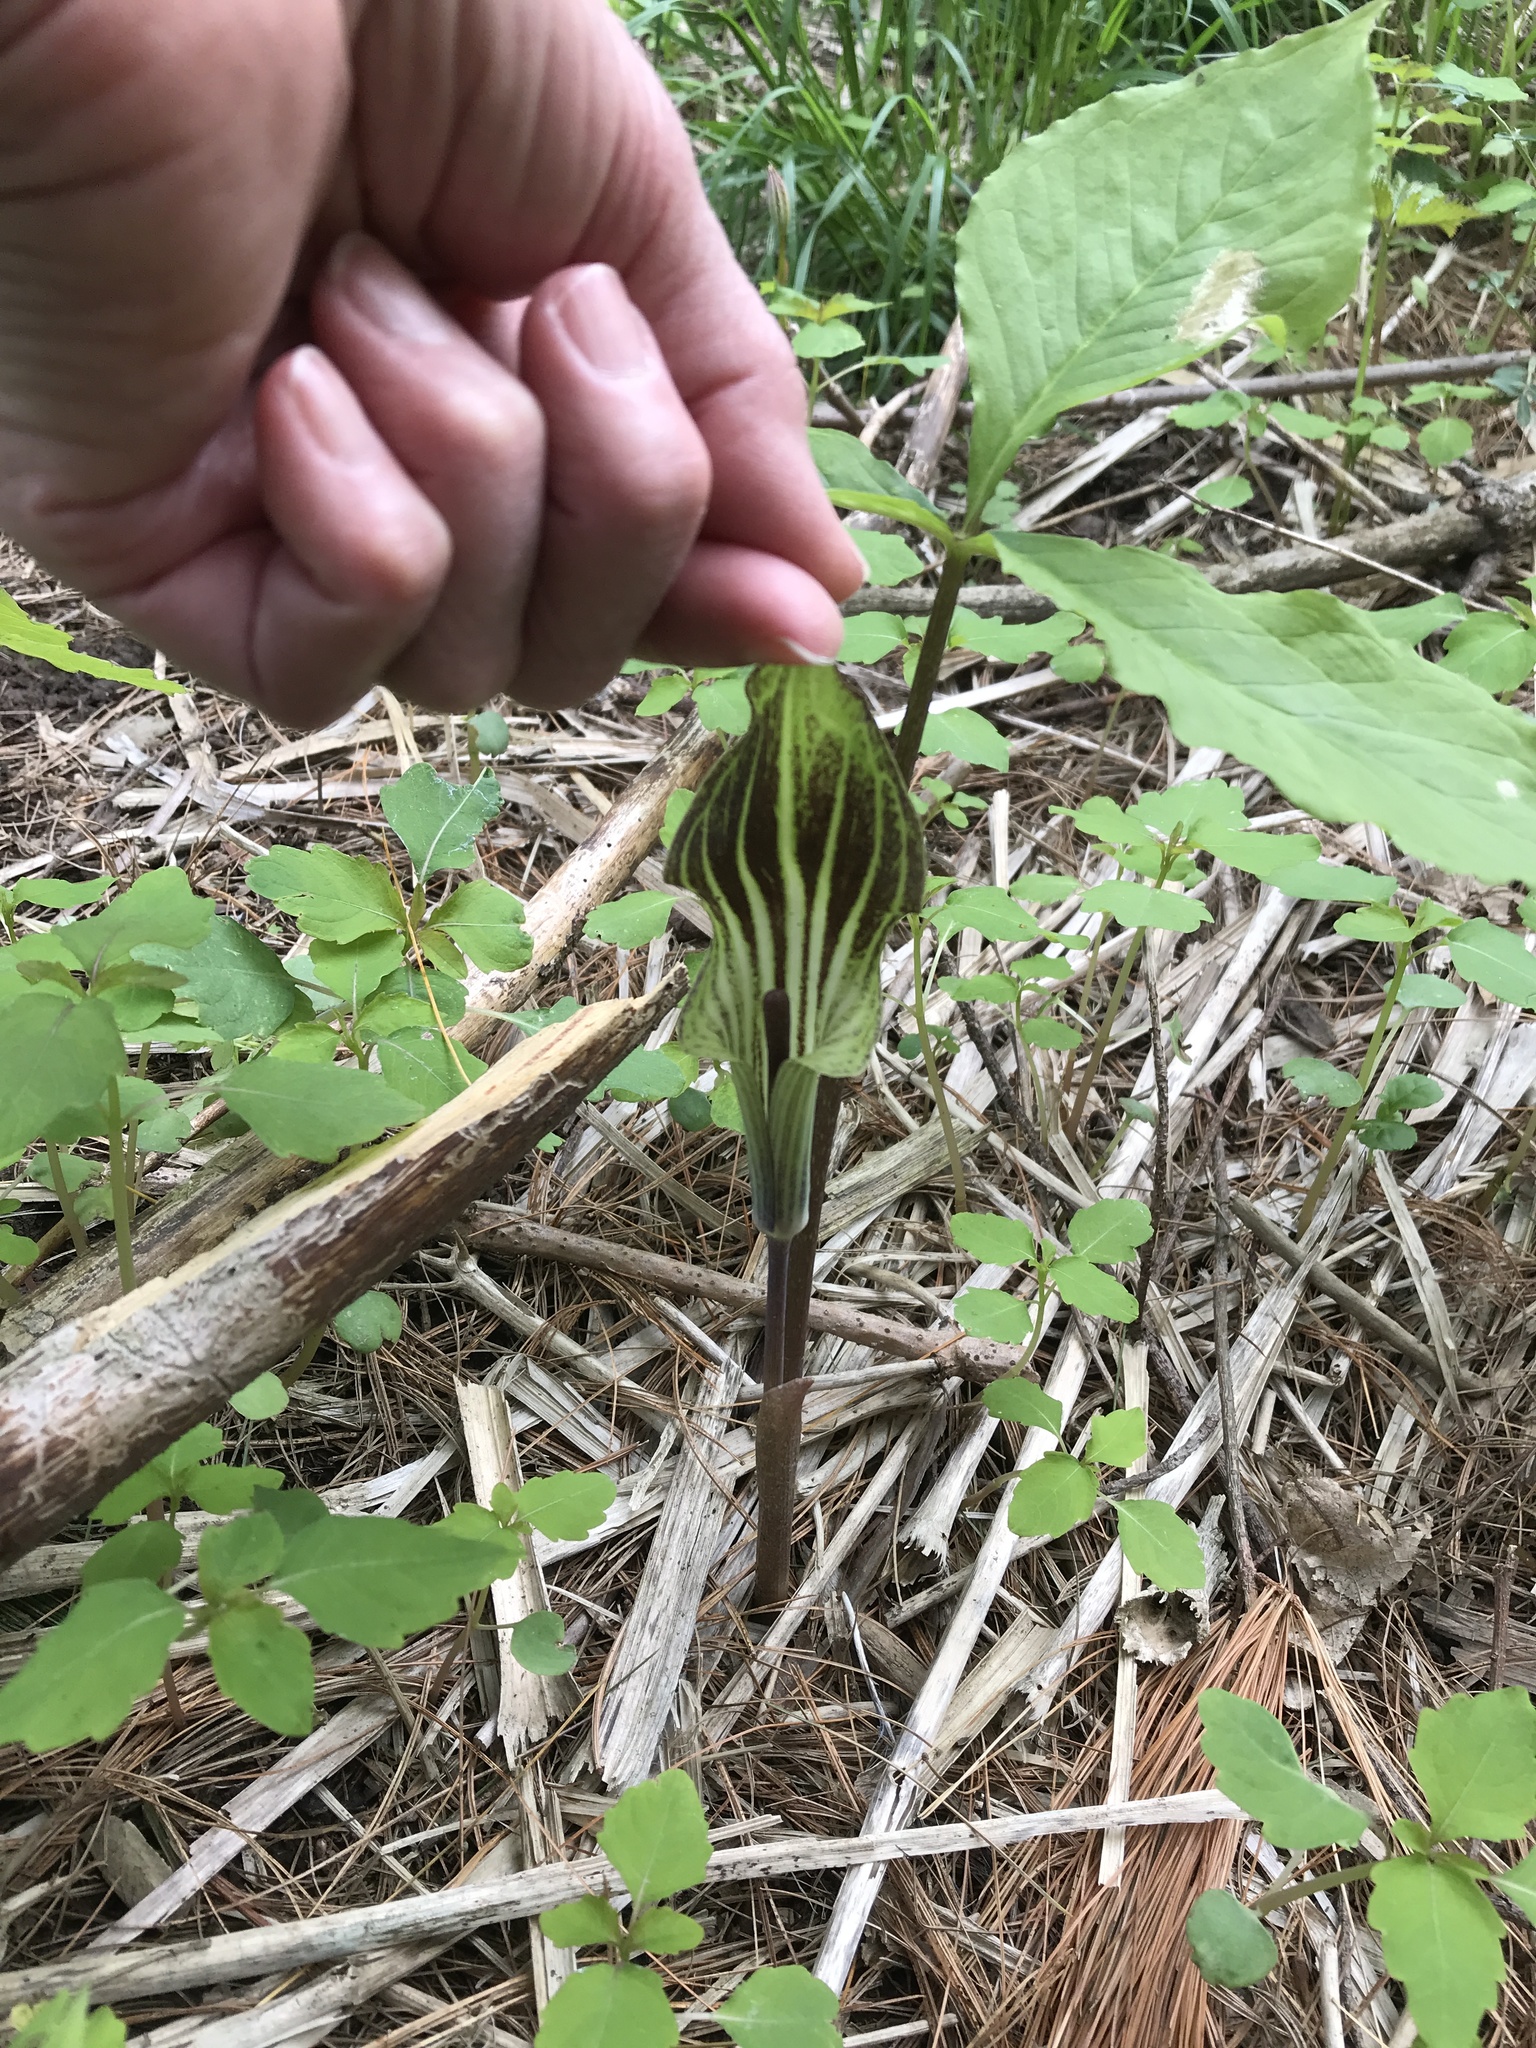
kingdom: Plantae
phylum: Tracheophyta
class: Liliopsida
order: Alismatales
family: Araceae
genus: Arisaema
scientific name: Arisaema triphyllum
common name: Jack-in-the-pulpit
